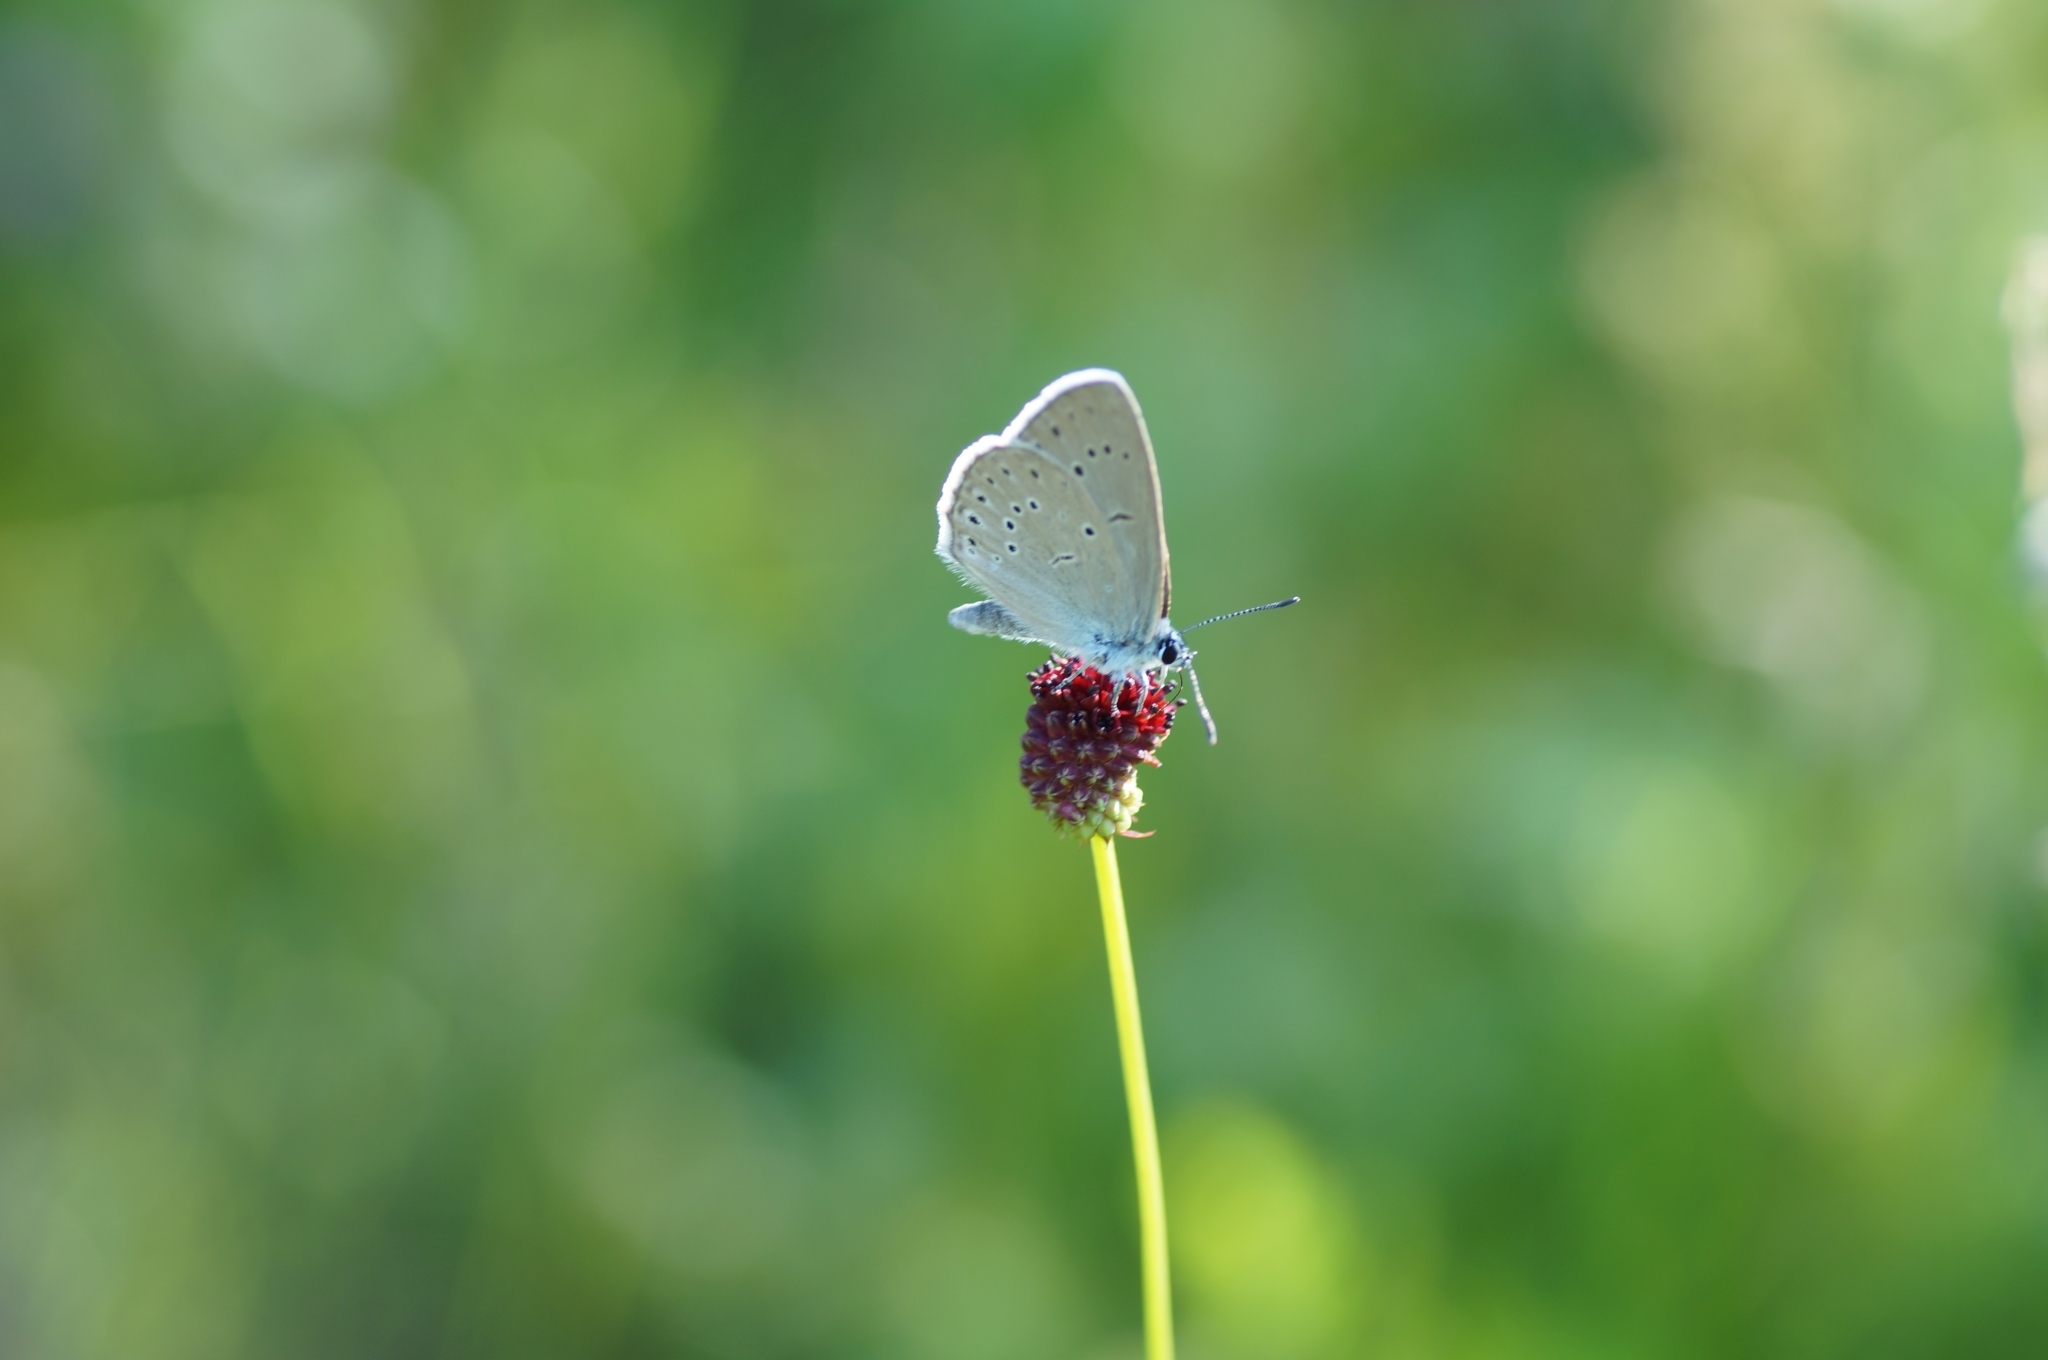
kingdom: Animalia
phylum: Arthropoda
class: Insecta
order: Lepidoptera
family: Lycaenidae
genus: Phengaris
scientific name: Phengaris teleius
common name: Scarce large blue
